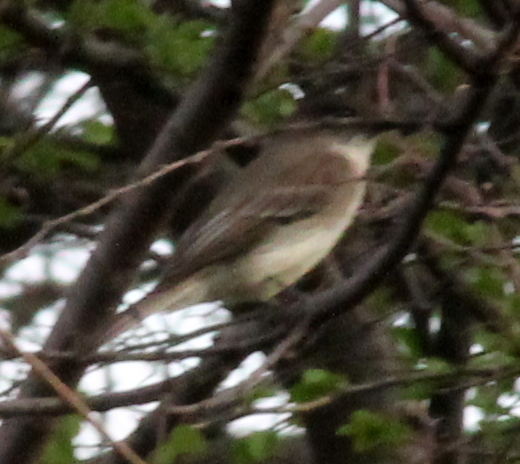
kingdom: Animalia
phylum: Chordata
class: Aves
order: Passeriformes
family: Tyrannidae
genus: Sayornis
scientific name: Sayornis phoebe
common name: Eastern phoebe
